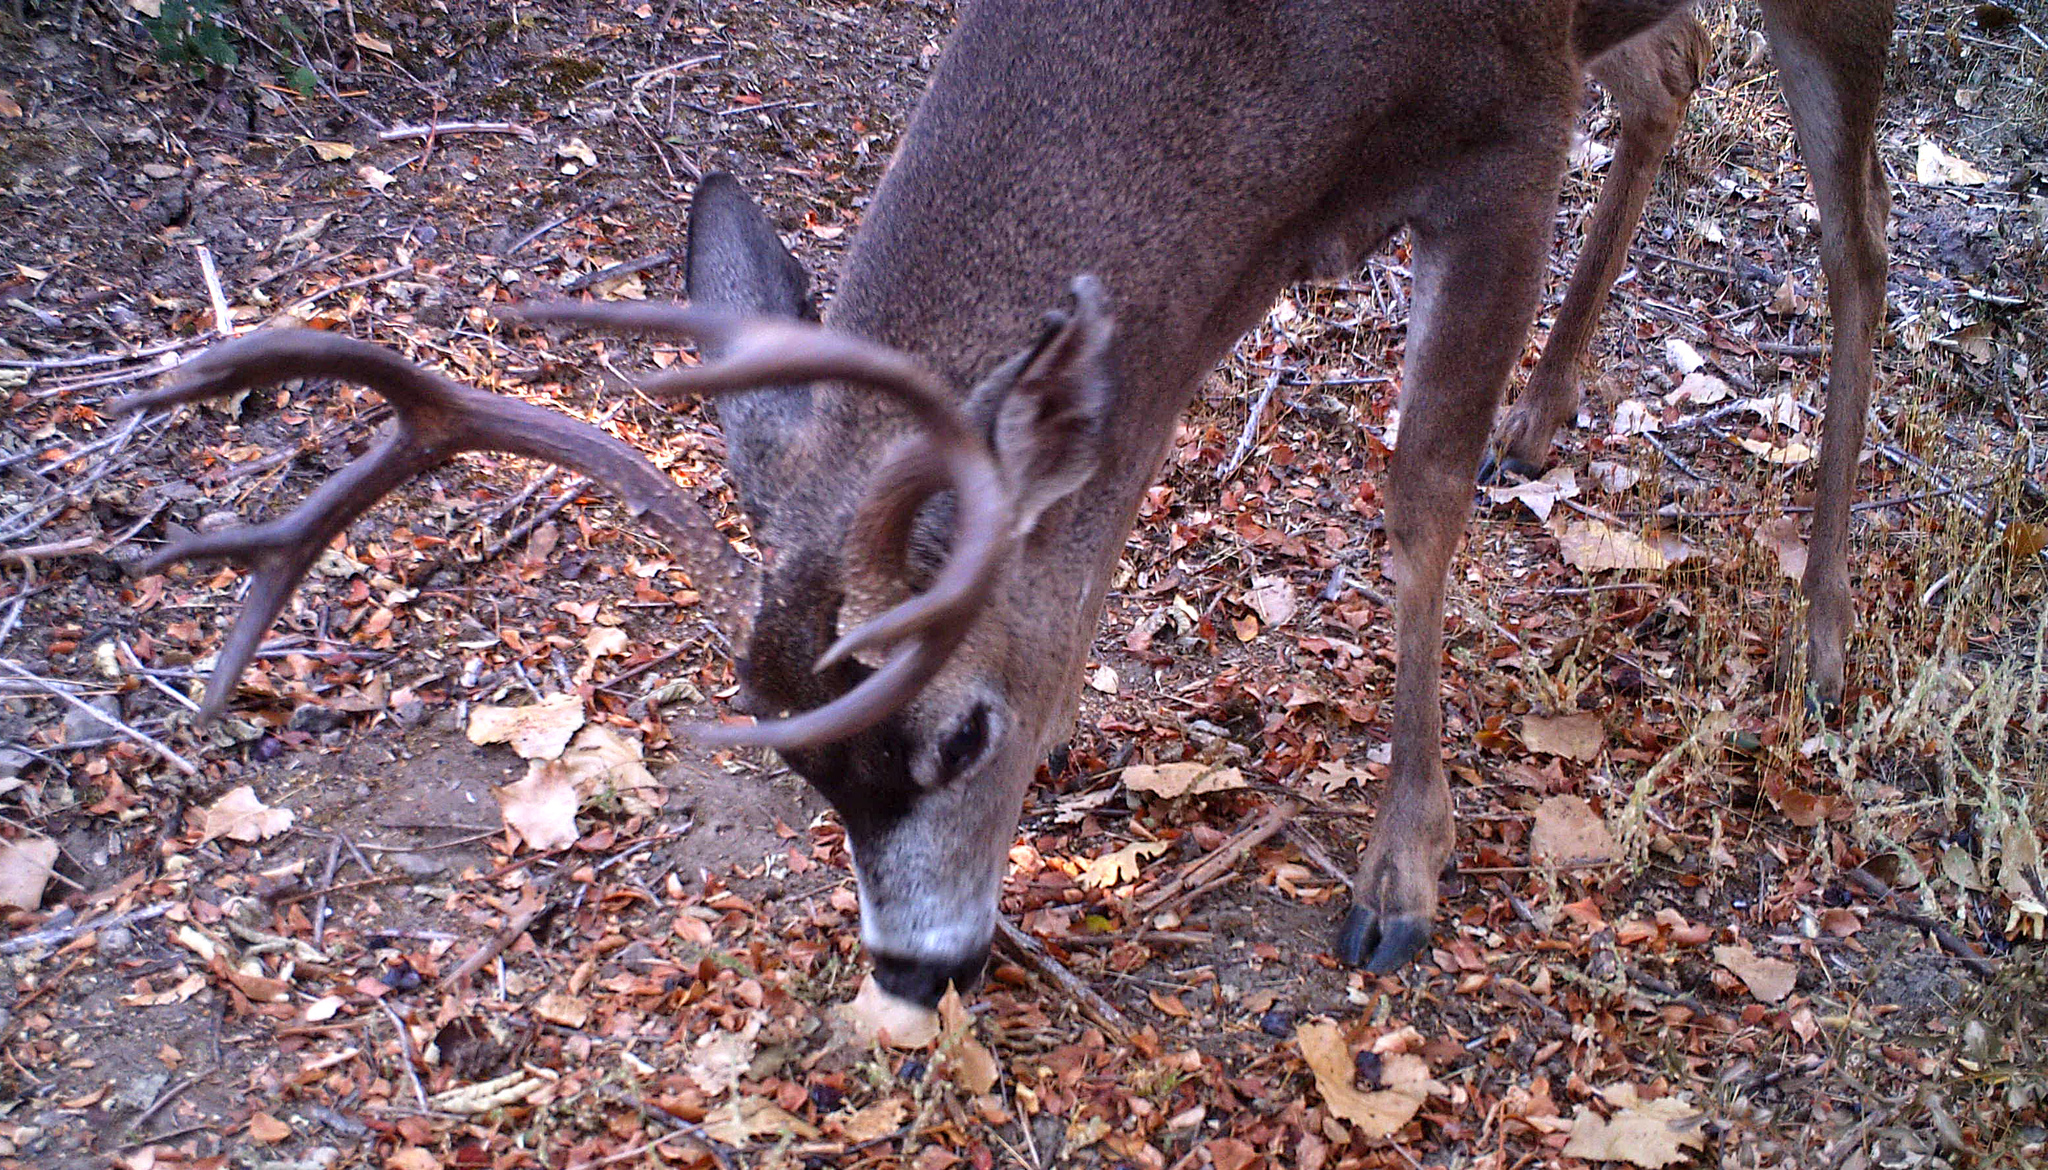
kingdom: Animalia
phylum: Chordata
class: Mammalia
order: Artiodactyla
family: Cervidae
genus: Odocoileus
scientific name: Odocoileus hemionus
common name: Mule deer
